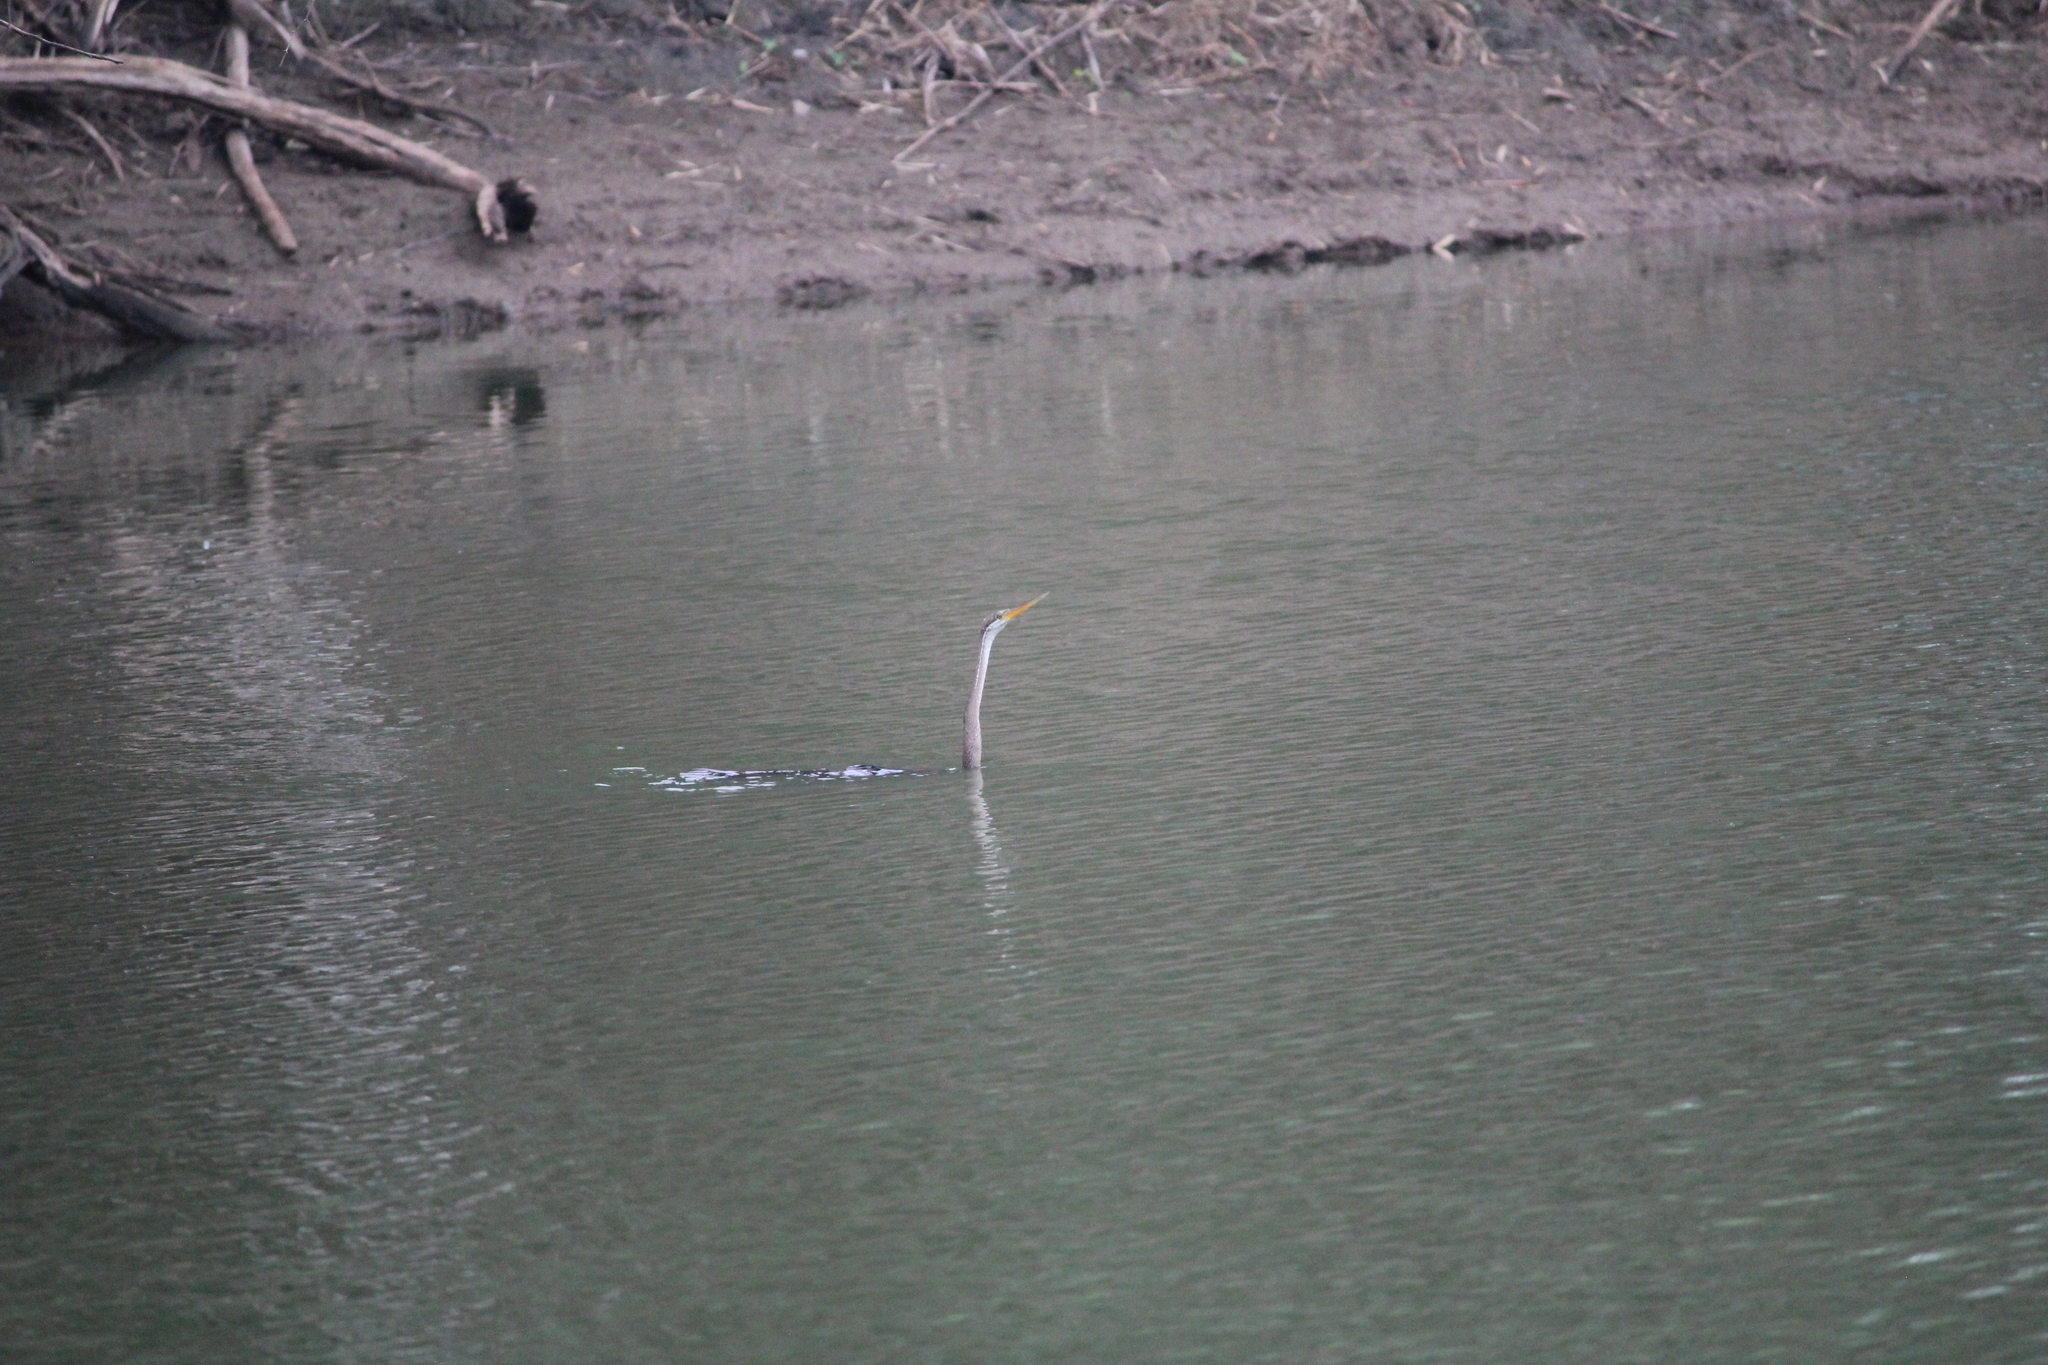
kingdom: Animalia
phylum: Chordata
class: Aves
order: Suliformes
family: Anhingidae
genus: Anhinga
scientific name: Anhinga melanogaster
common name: Oriental darter
